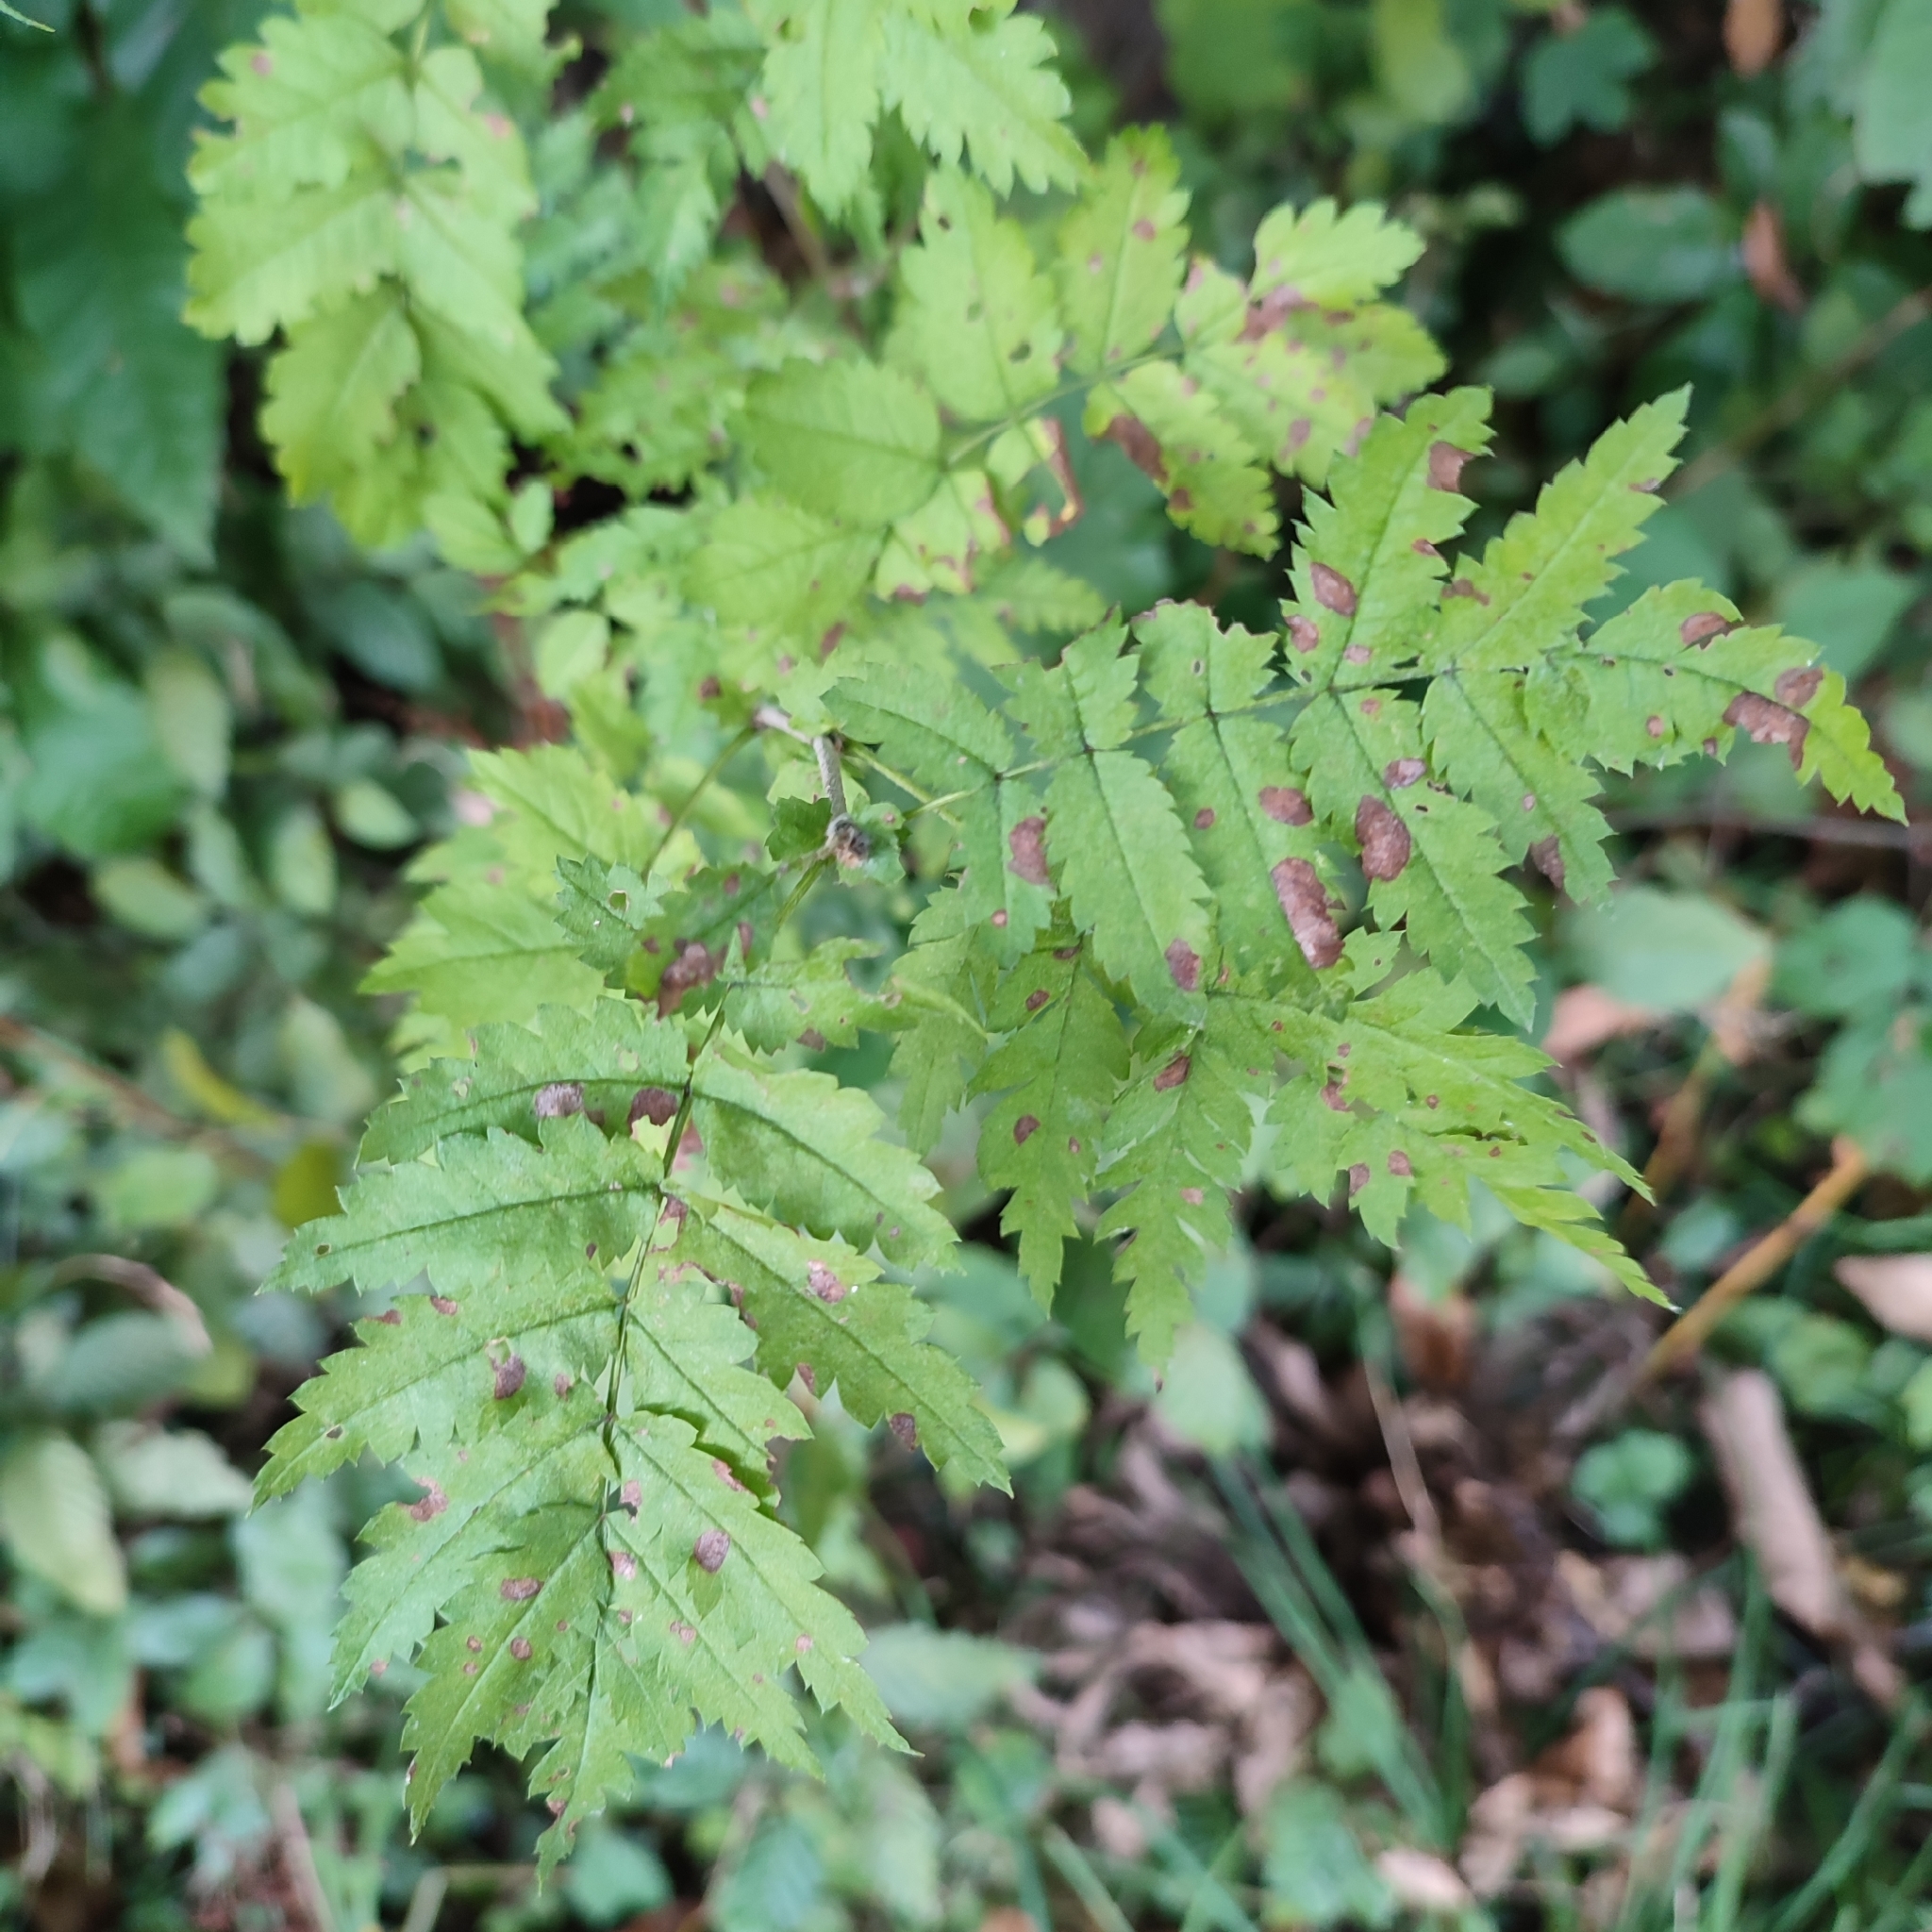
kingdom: Plantae
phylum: Tracheophyta
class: Magnoliopsida
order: Rosales
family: Rosaceae
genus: Sorbus
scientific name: Sorbus aucuparia
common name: Rowan
